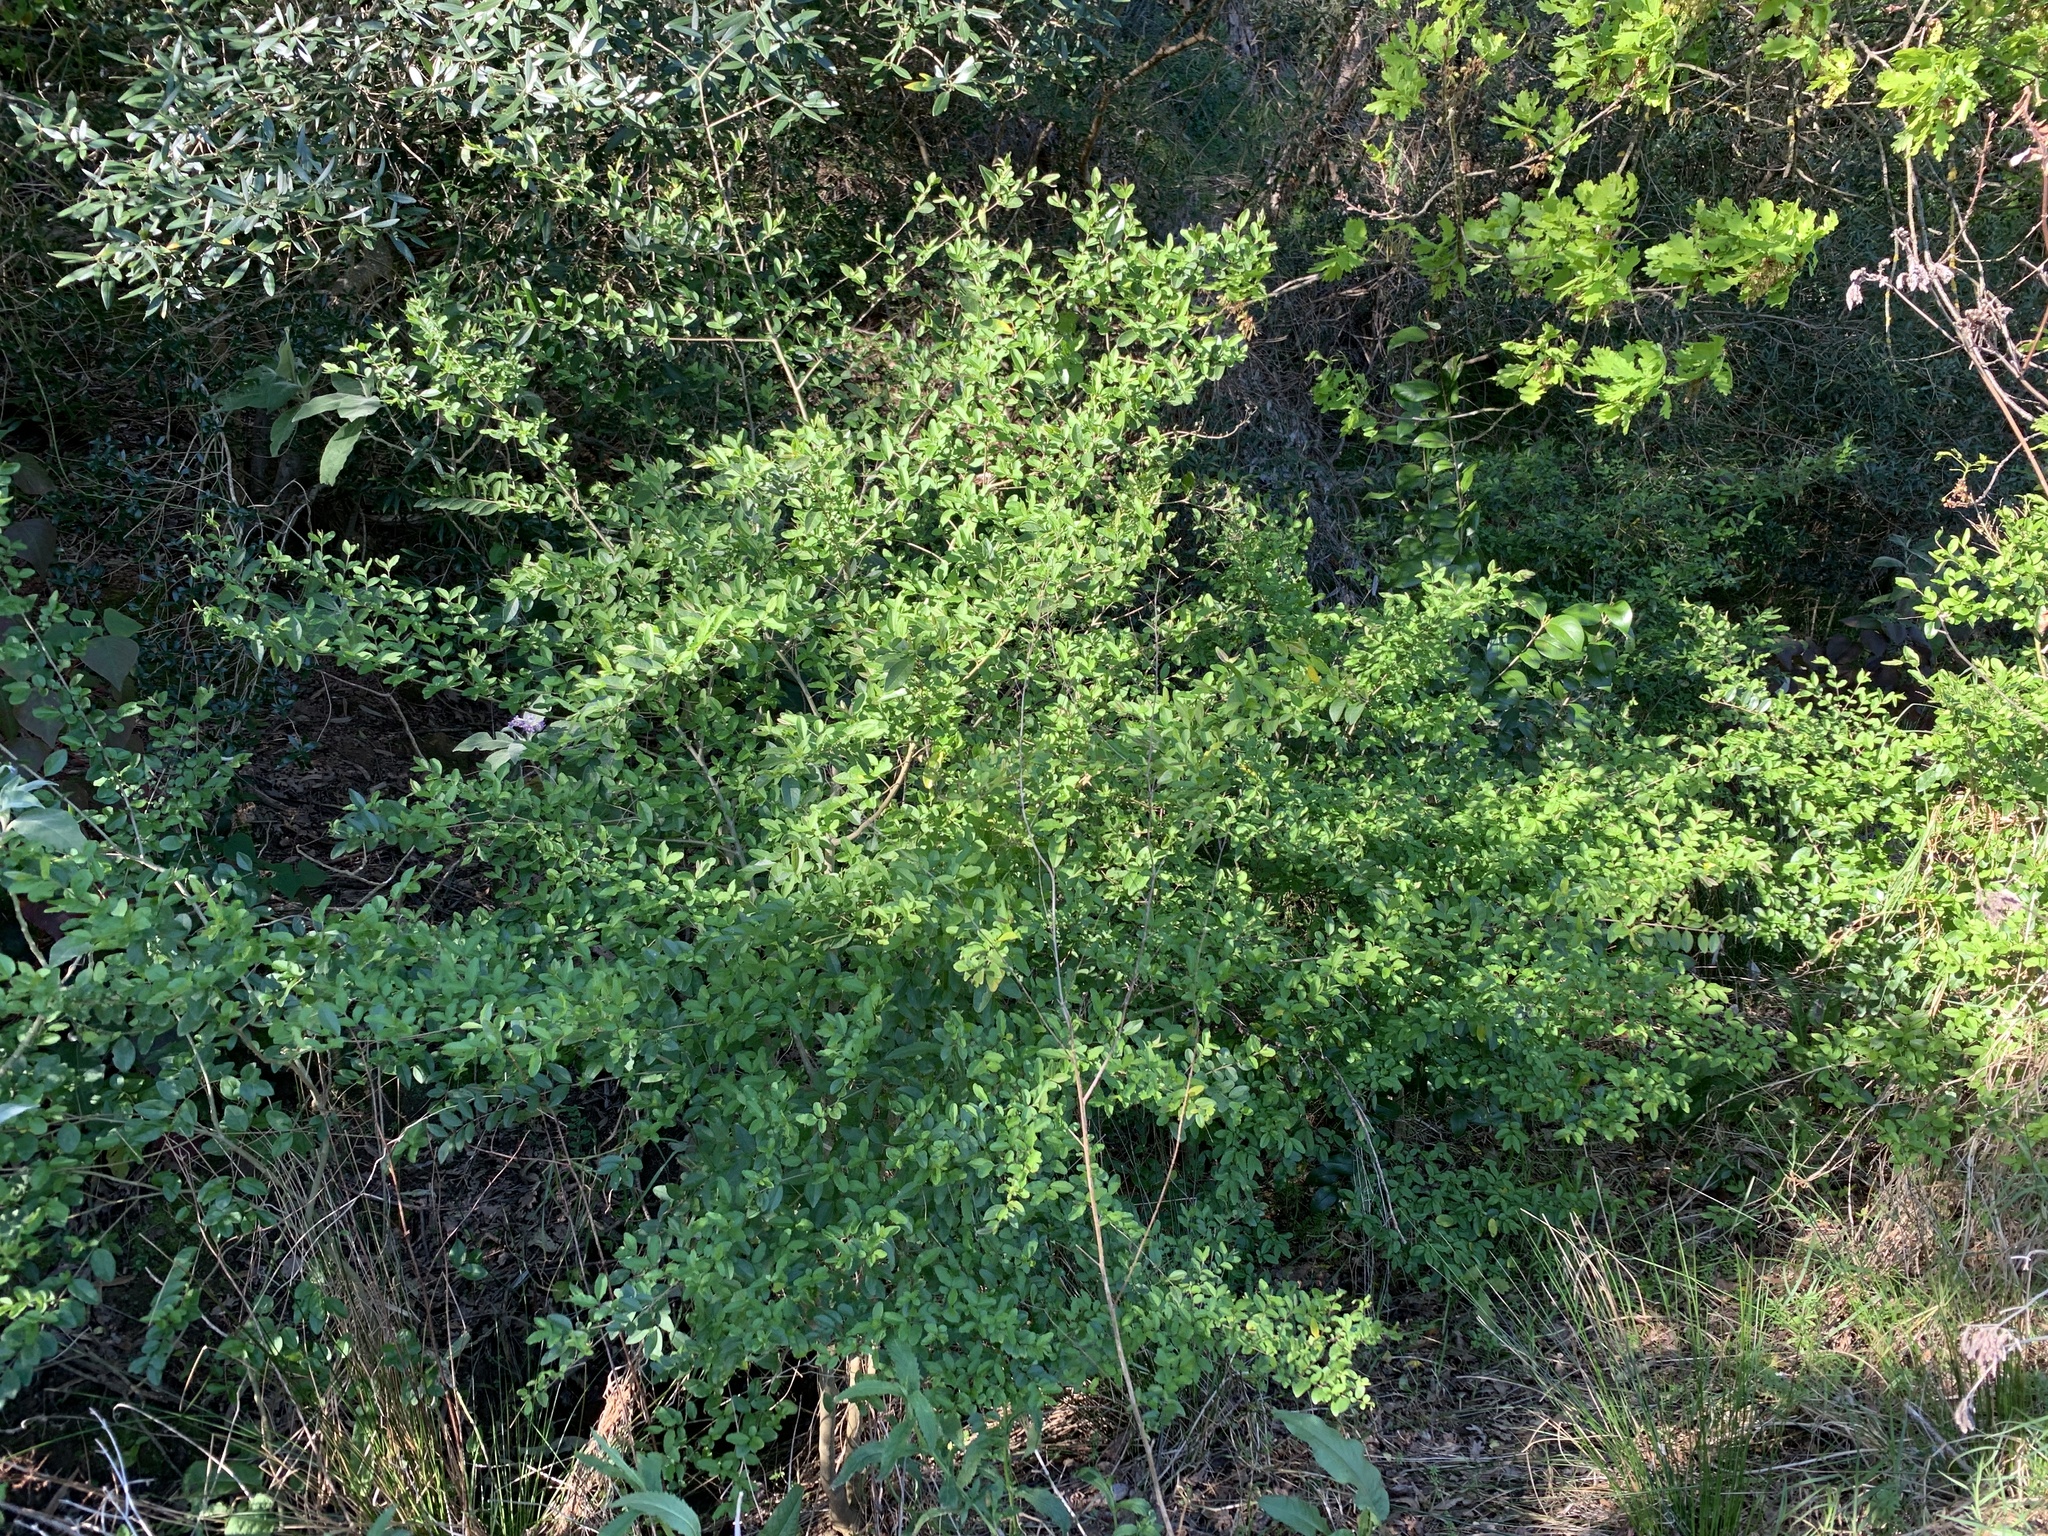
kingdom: Plantae
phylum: Tracheophyta
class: Magnoliopsida
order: Lamiales
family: Oleaceae
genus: Ligustrum
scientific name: Ligustrum sinense
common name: Chinese privet
